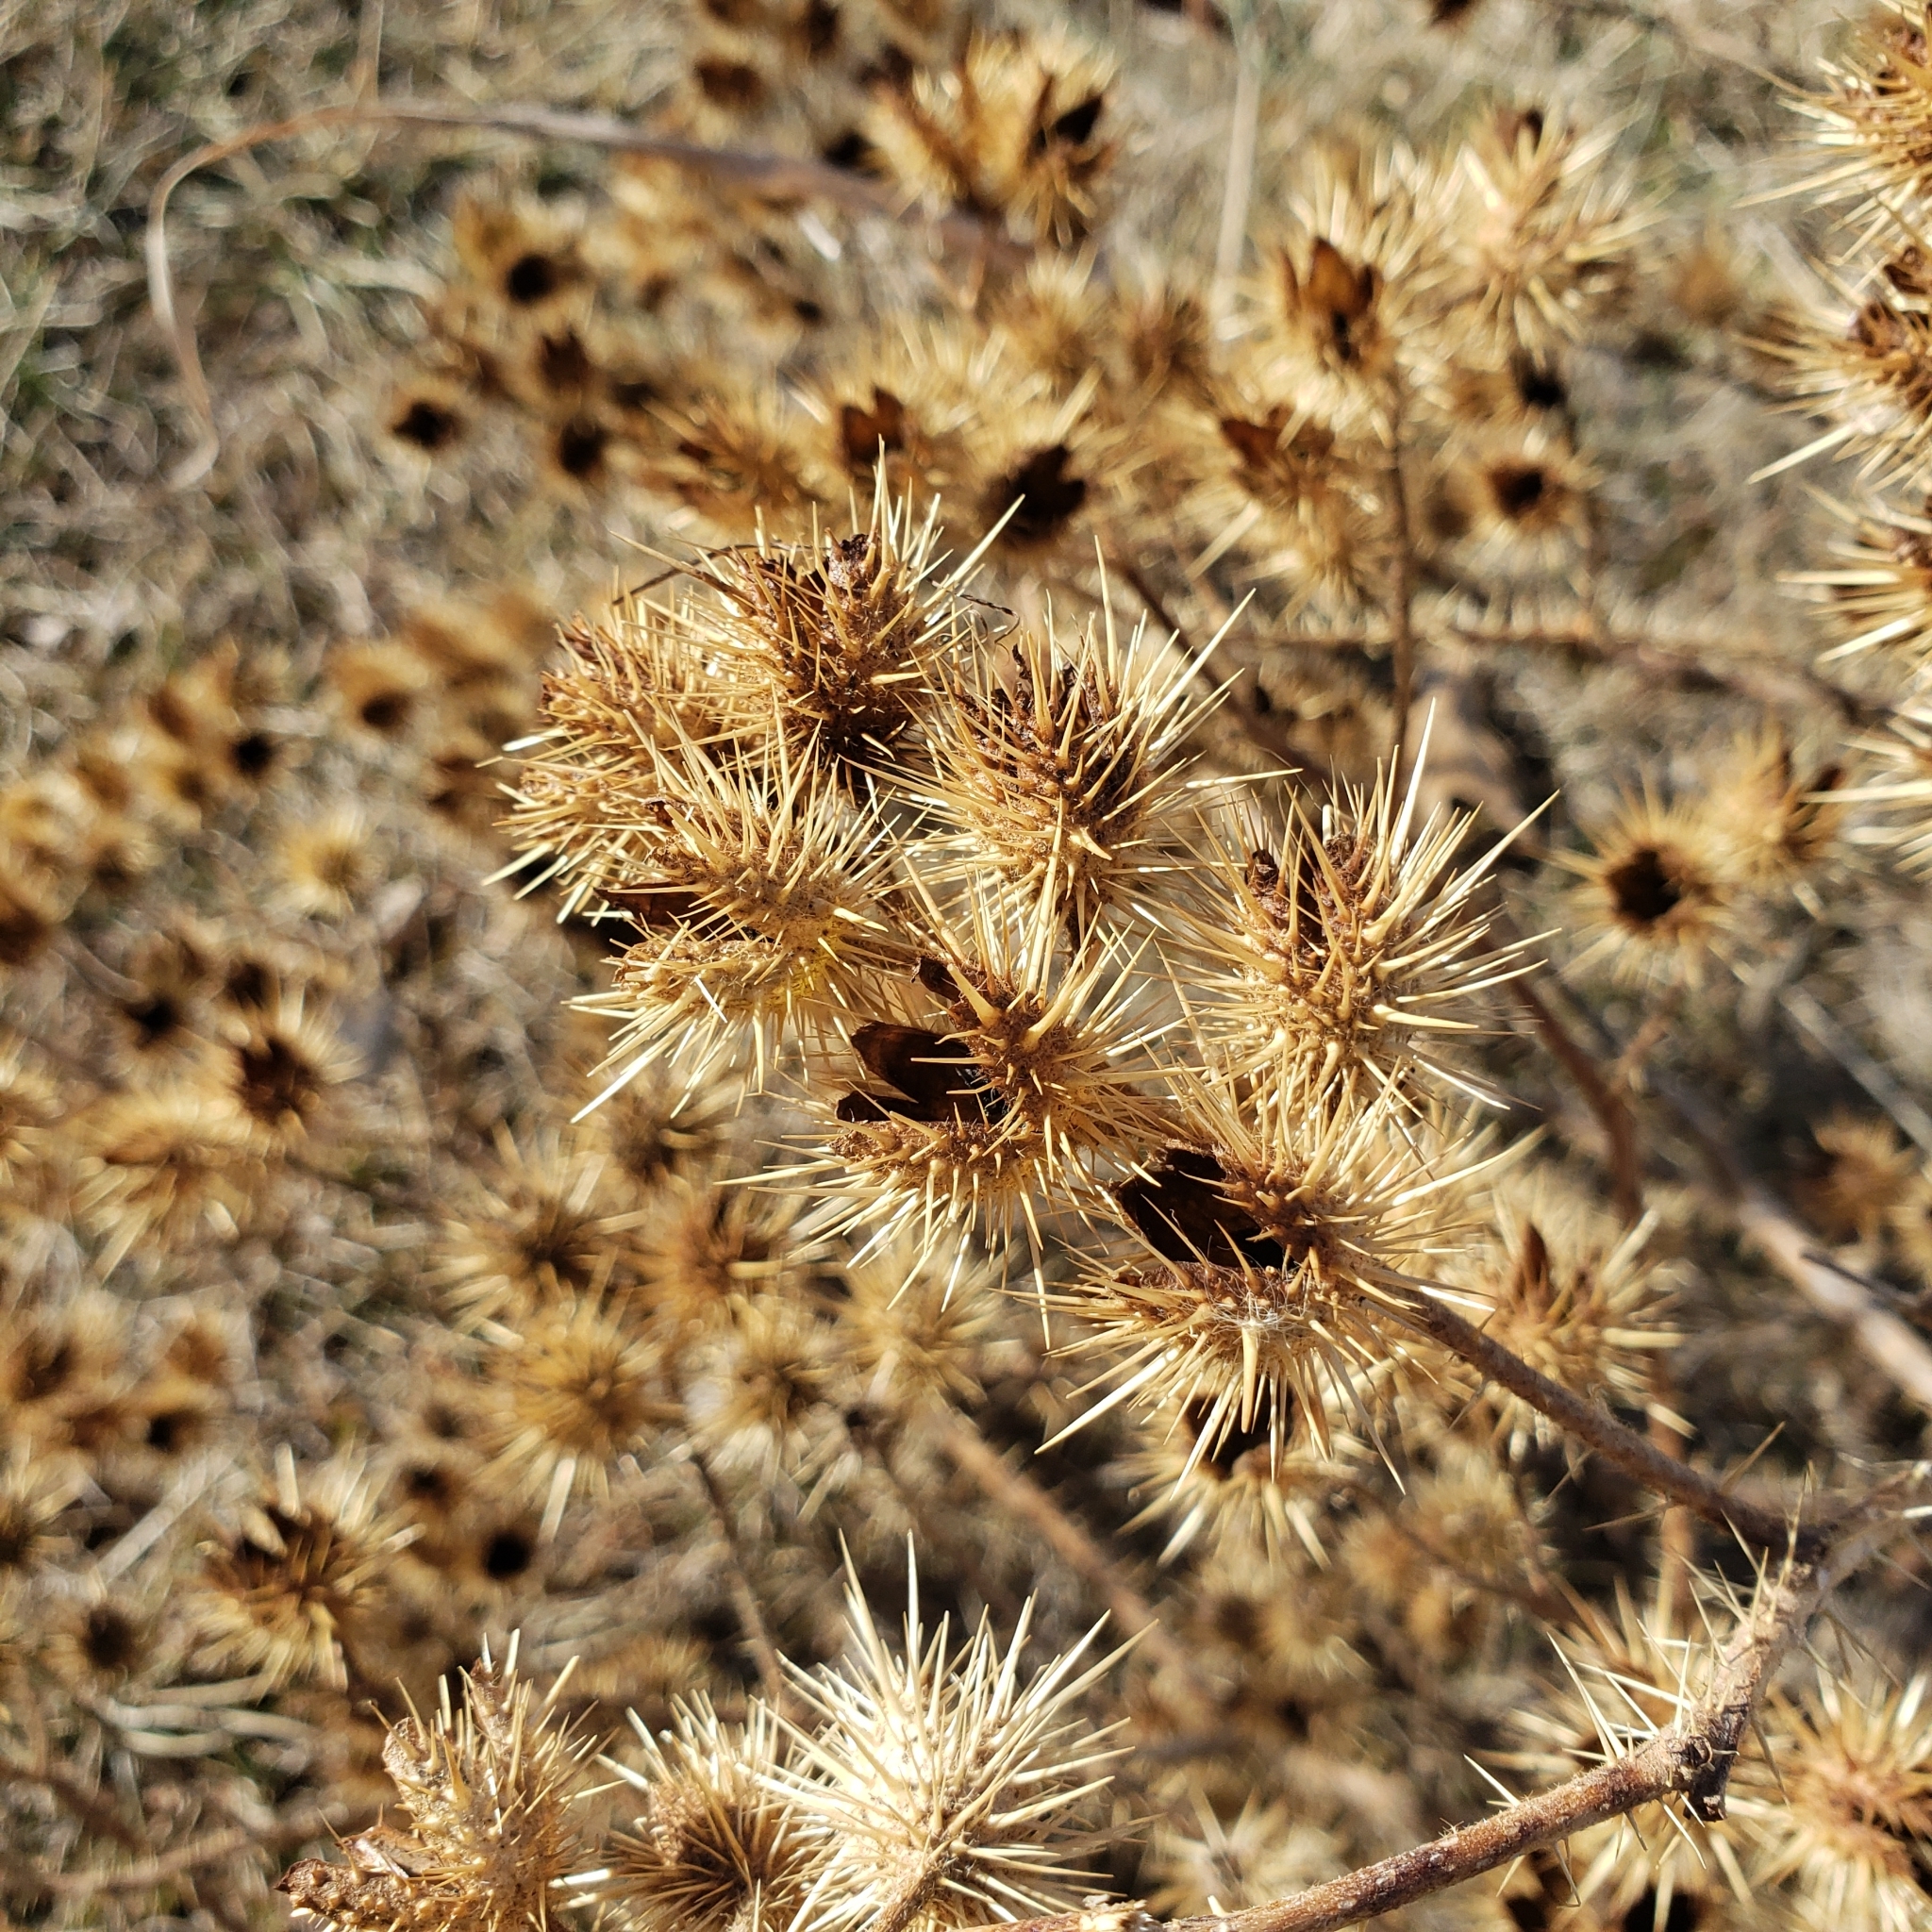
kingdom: Plantae
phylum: Tracheophyta
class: Magnoliopsida
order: Solanales
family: Solanaceae
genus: Solanum
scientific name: Solanum angustifolium
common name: Buffalobur nightshade
